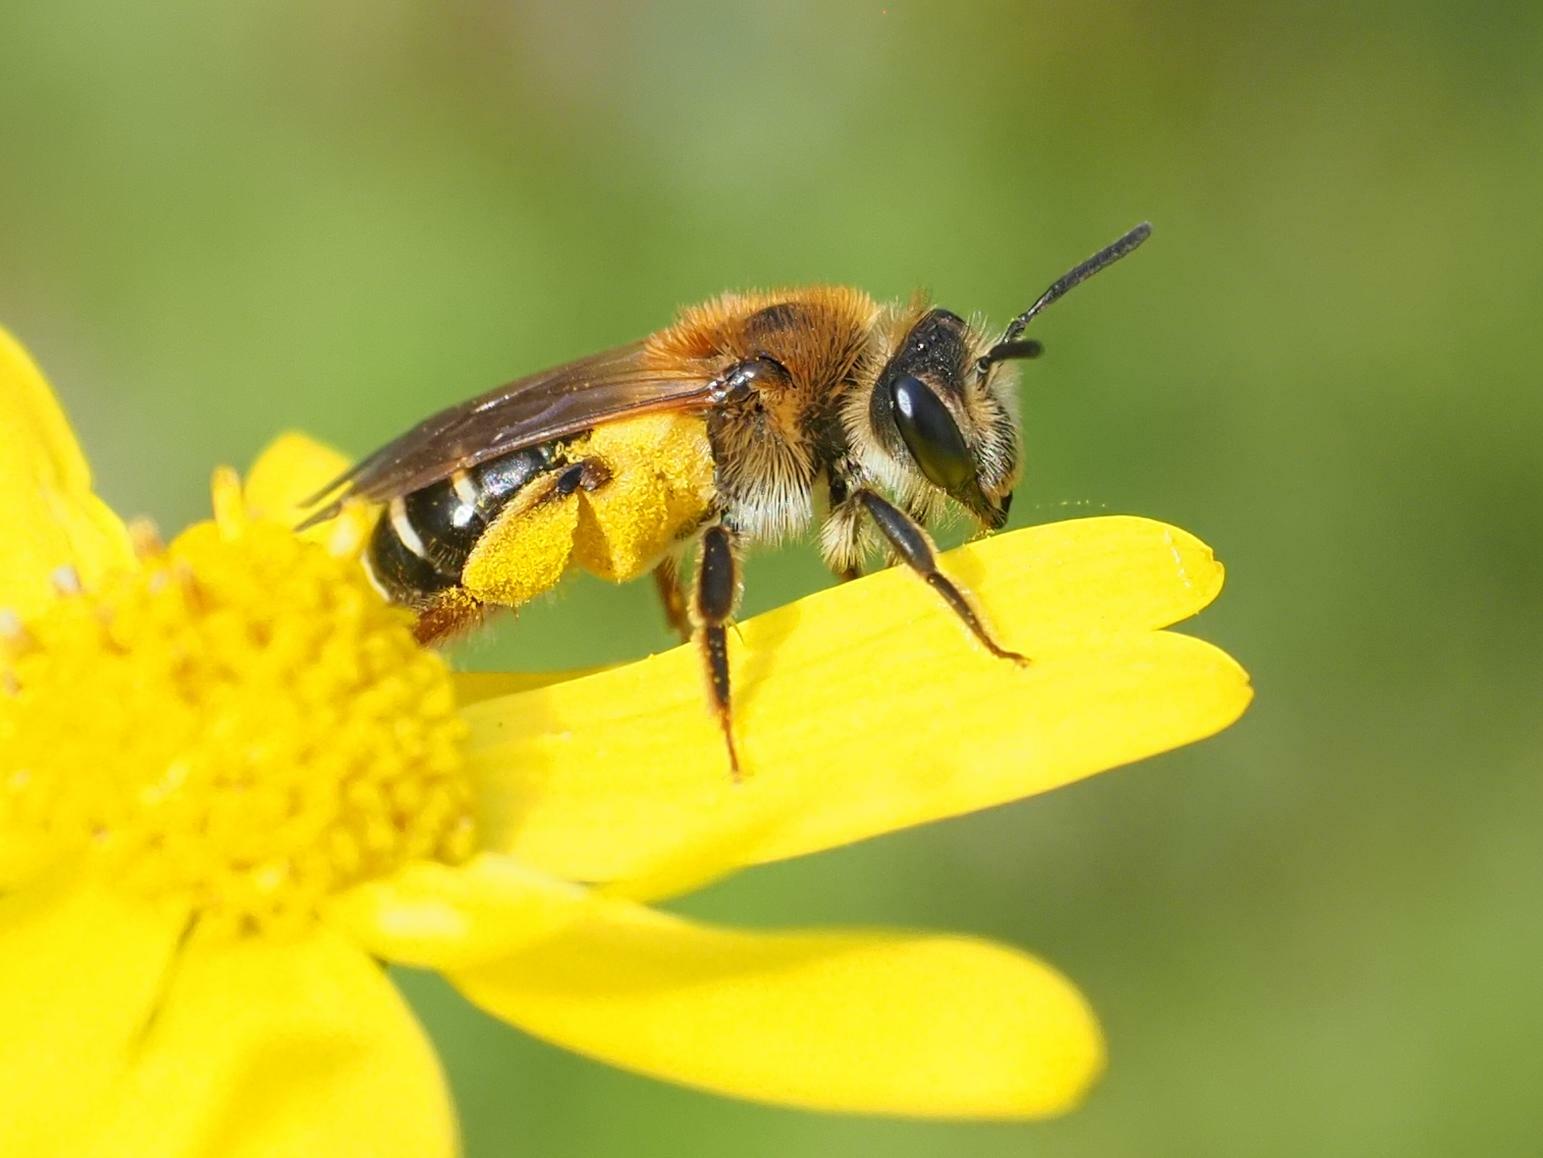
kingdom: Animalia
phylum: Arthropoda
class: Insecta
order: Hymenoptera
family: Andrenidae
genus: Andrena
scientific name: Andrena wilkella
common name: Wilke's mining bee
